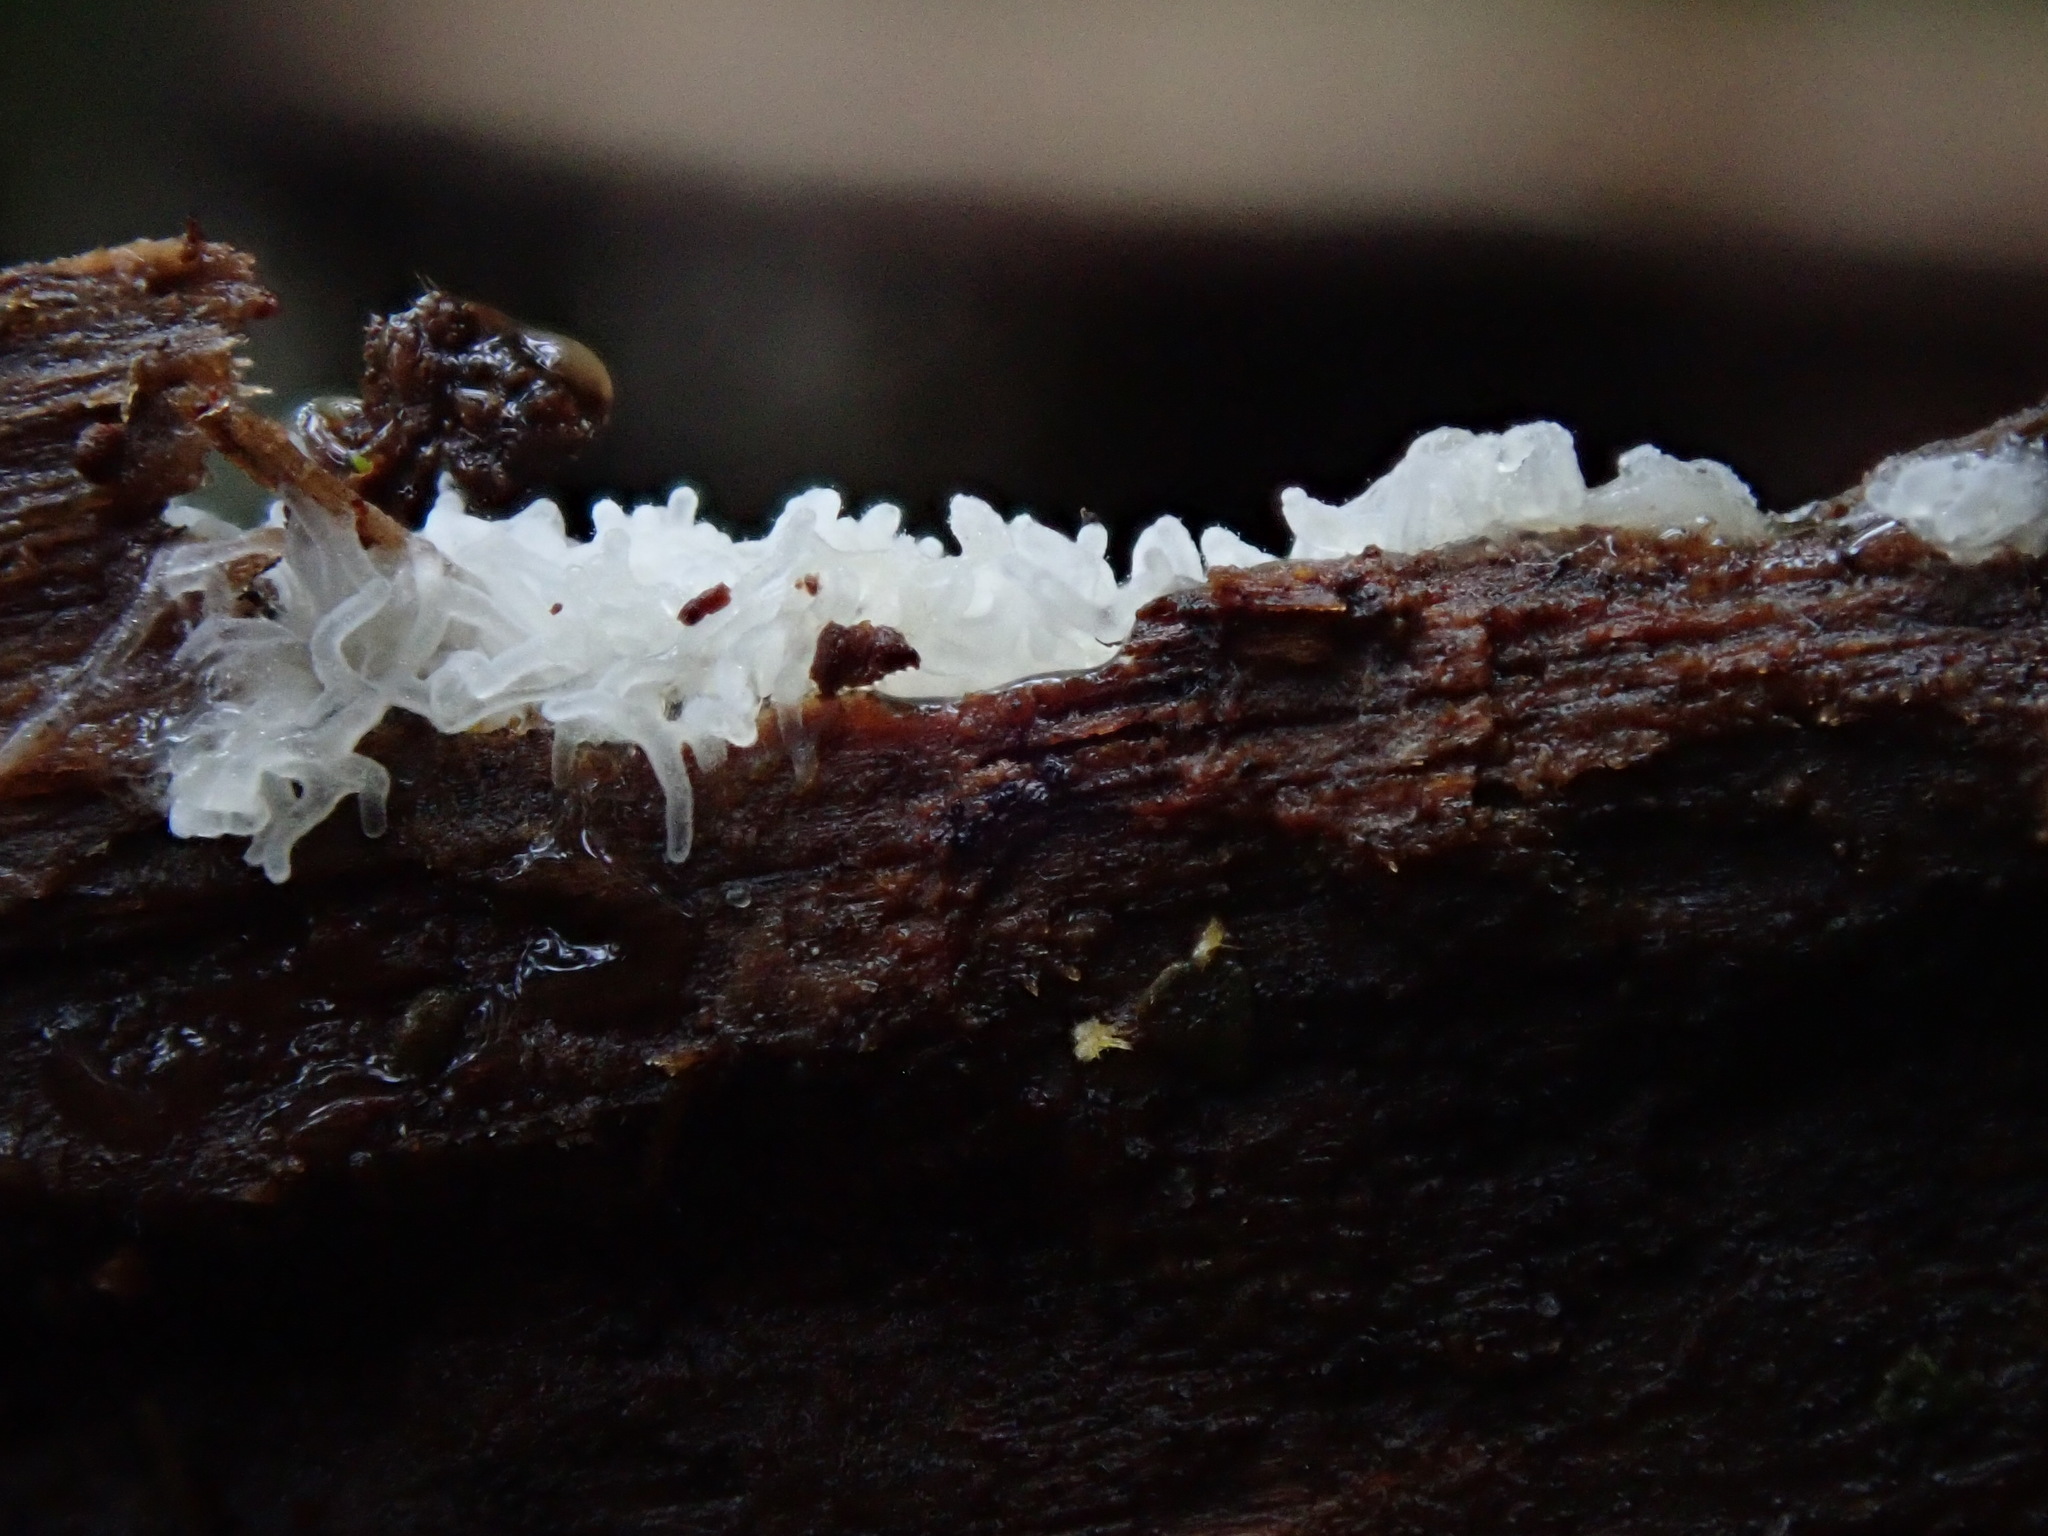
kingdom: Protozoa
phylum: Mycetozoa
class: Protosteliomycetes
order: Ceratiomyxales
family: Ceratiomyxaceae
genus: Ceratiomyxa
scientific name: Ceratiomyxa fruticulosa
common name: Honeycomb coral slime mold
